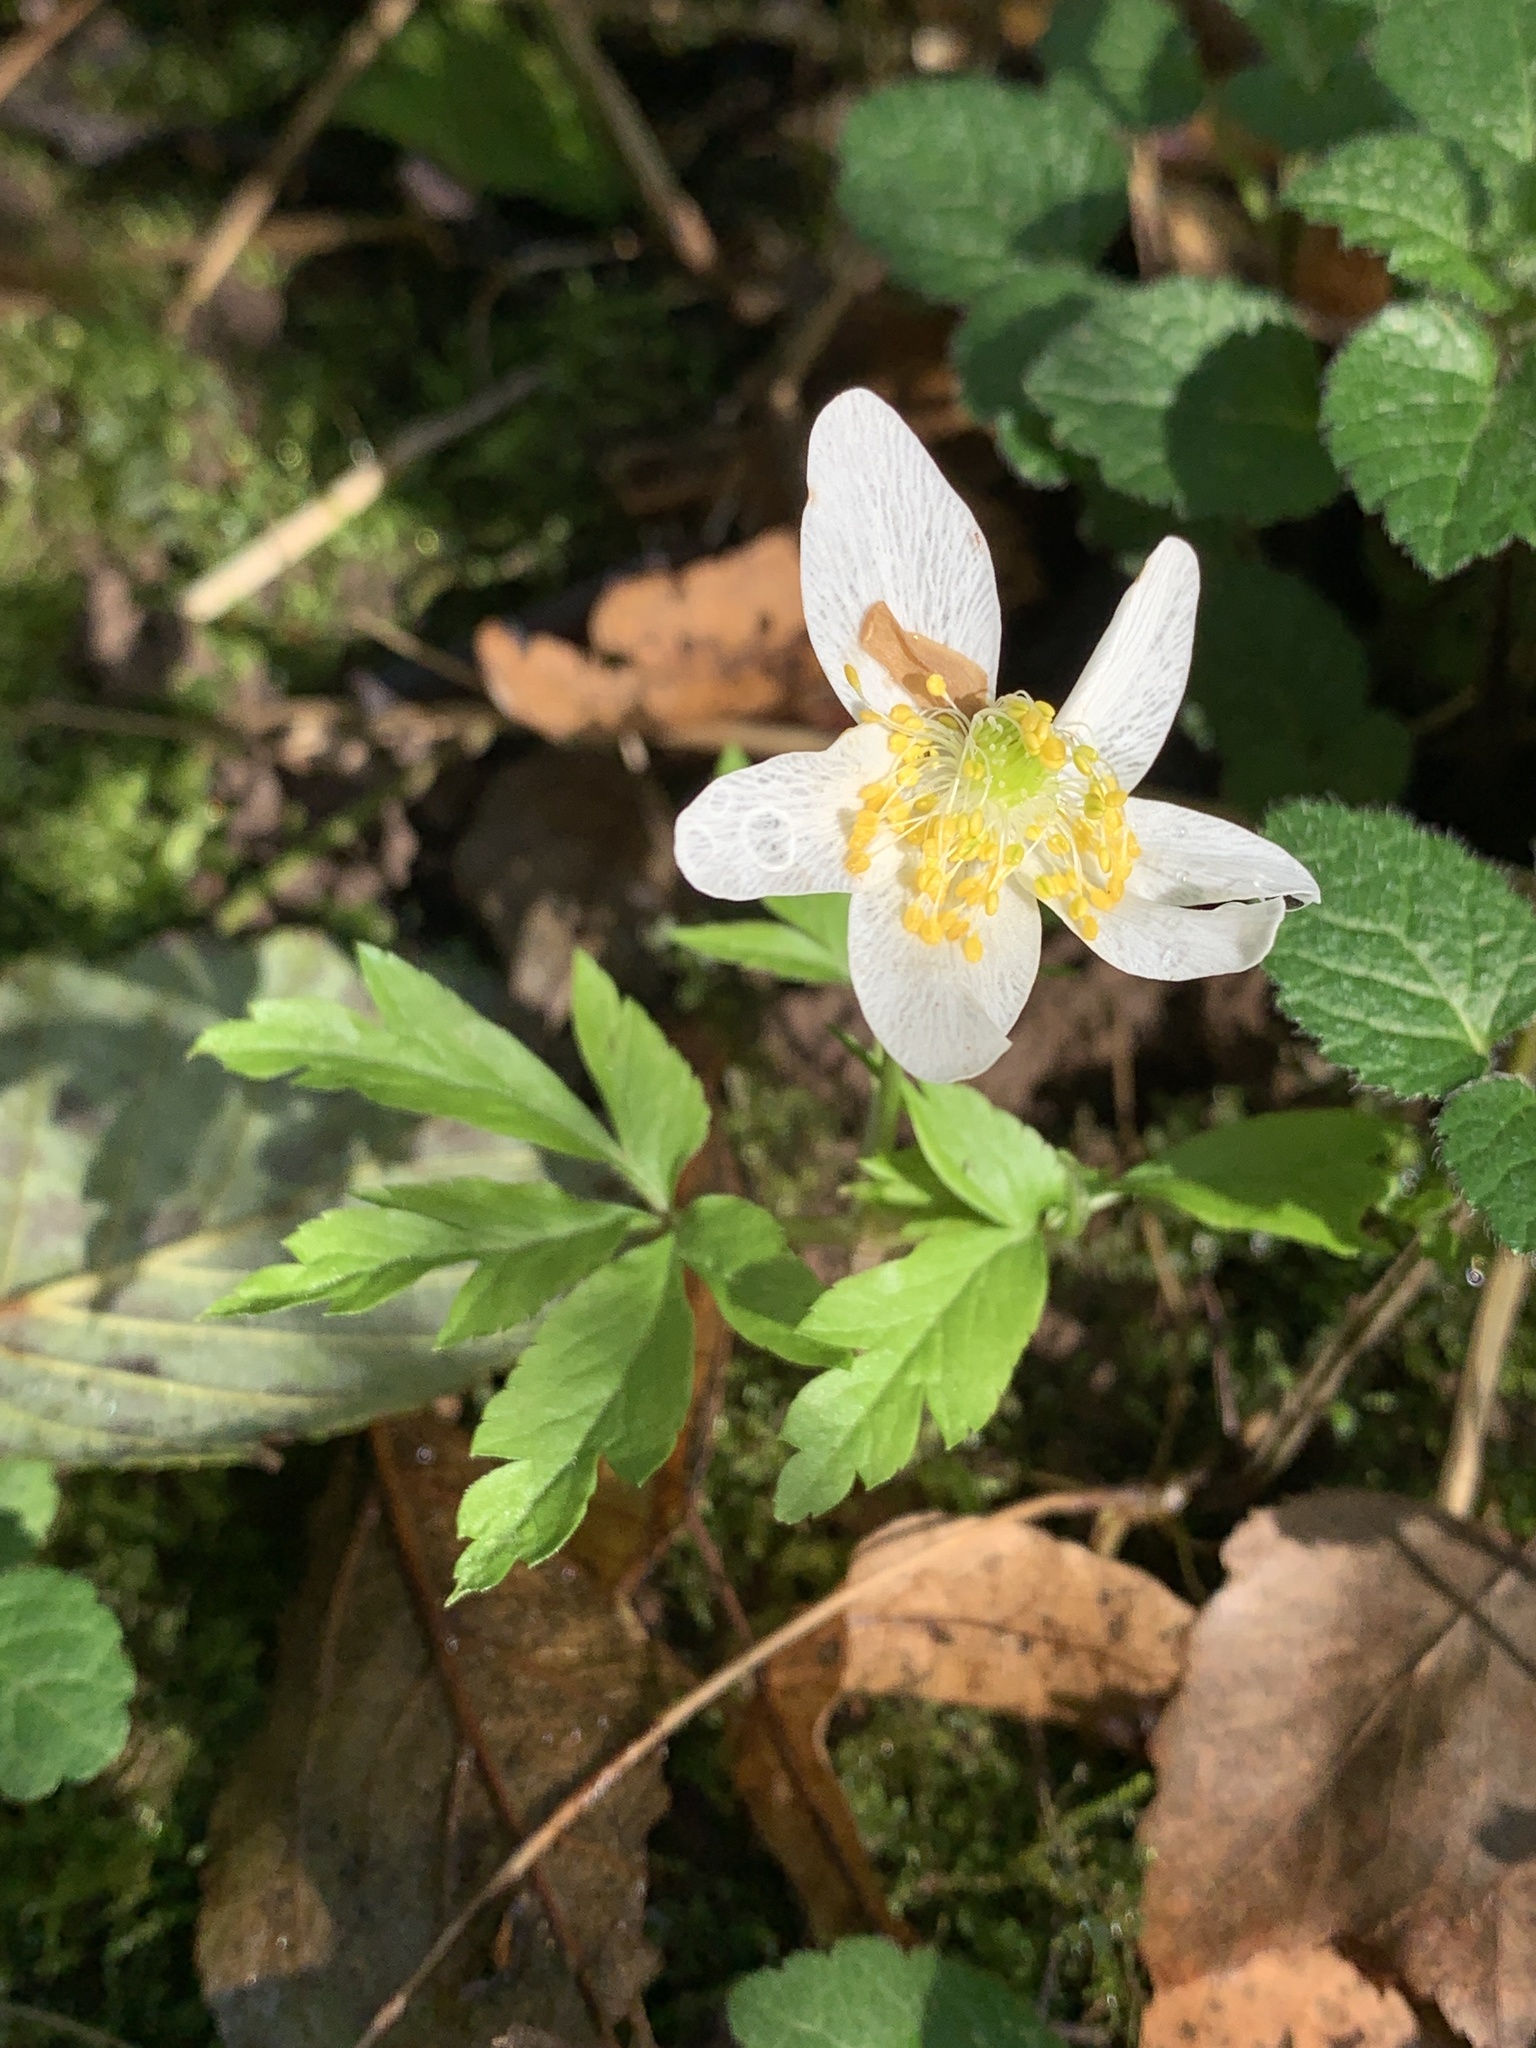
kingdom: Plantae
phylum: Tracheophyta
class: Magnoliopsida
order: Ranunculales
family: Ranunculaceae
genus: Anemone
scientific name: Anemone nemorosa
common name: Wood anemone
